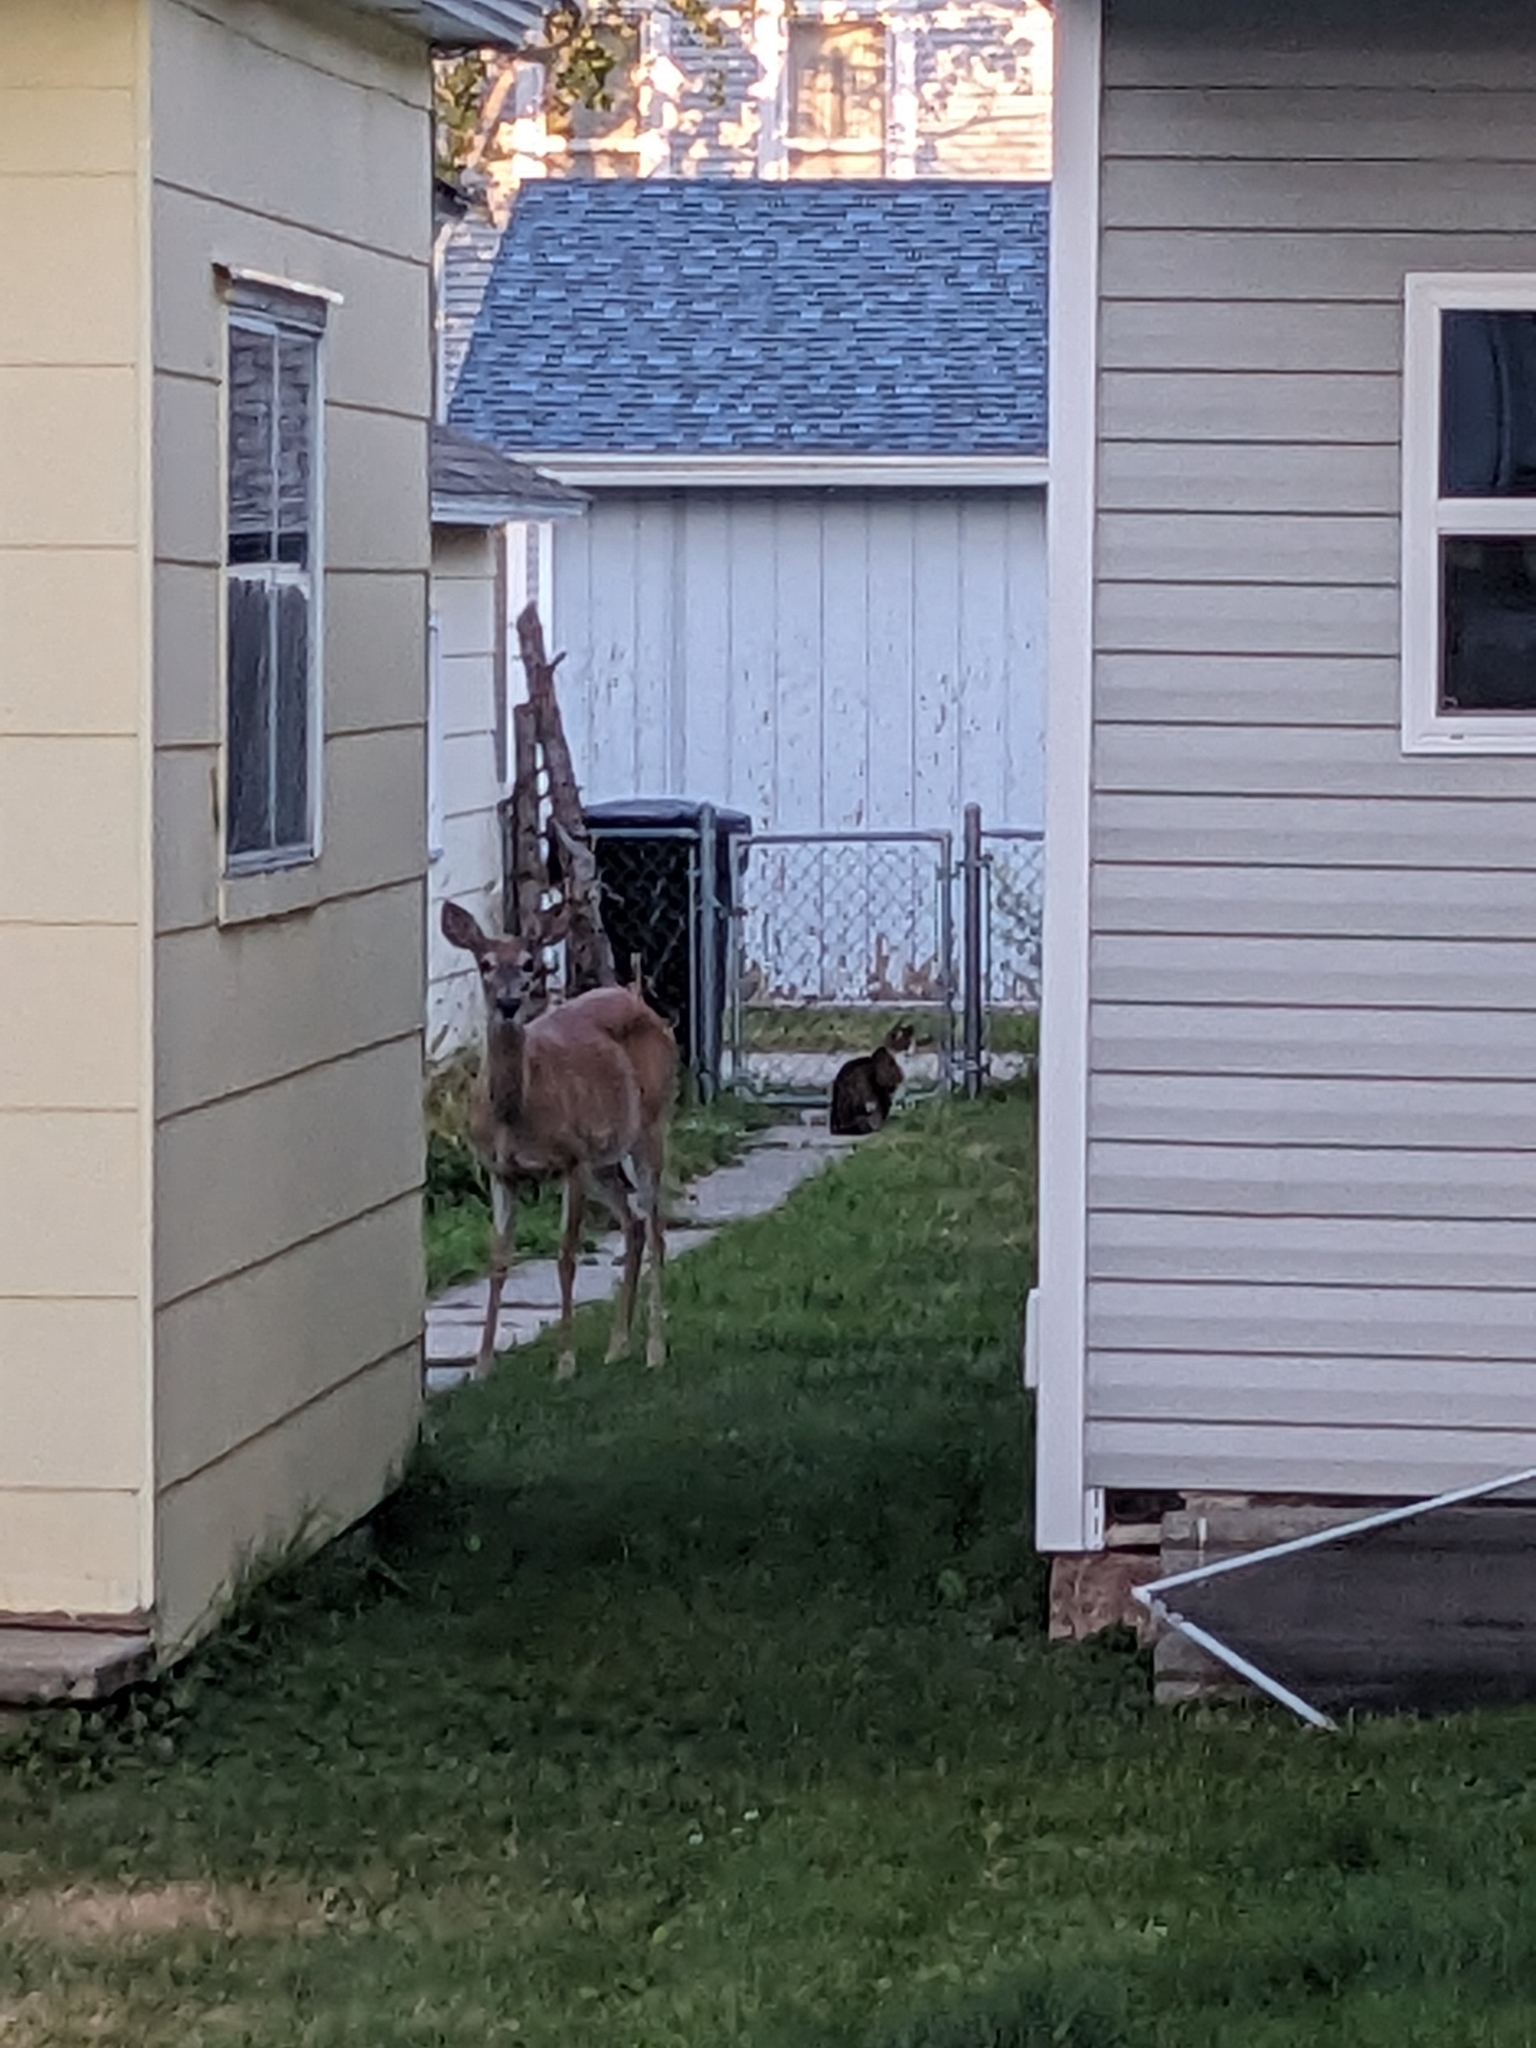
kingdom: Animalia
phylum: Chordata
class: Mammalia
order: Artiodactyla
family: Cervidae
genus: Odocoileus
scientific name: Odocoileus virginianus
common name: White-tailed deer
